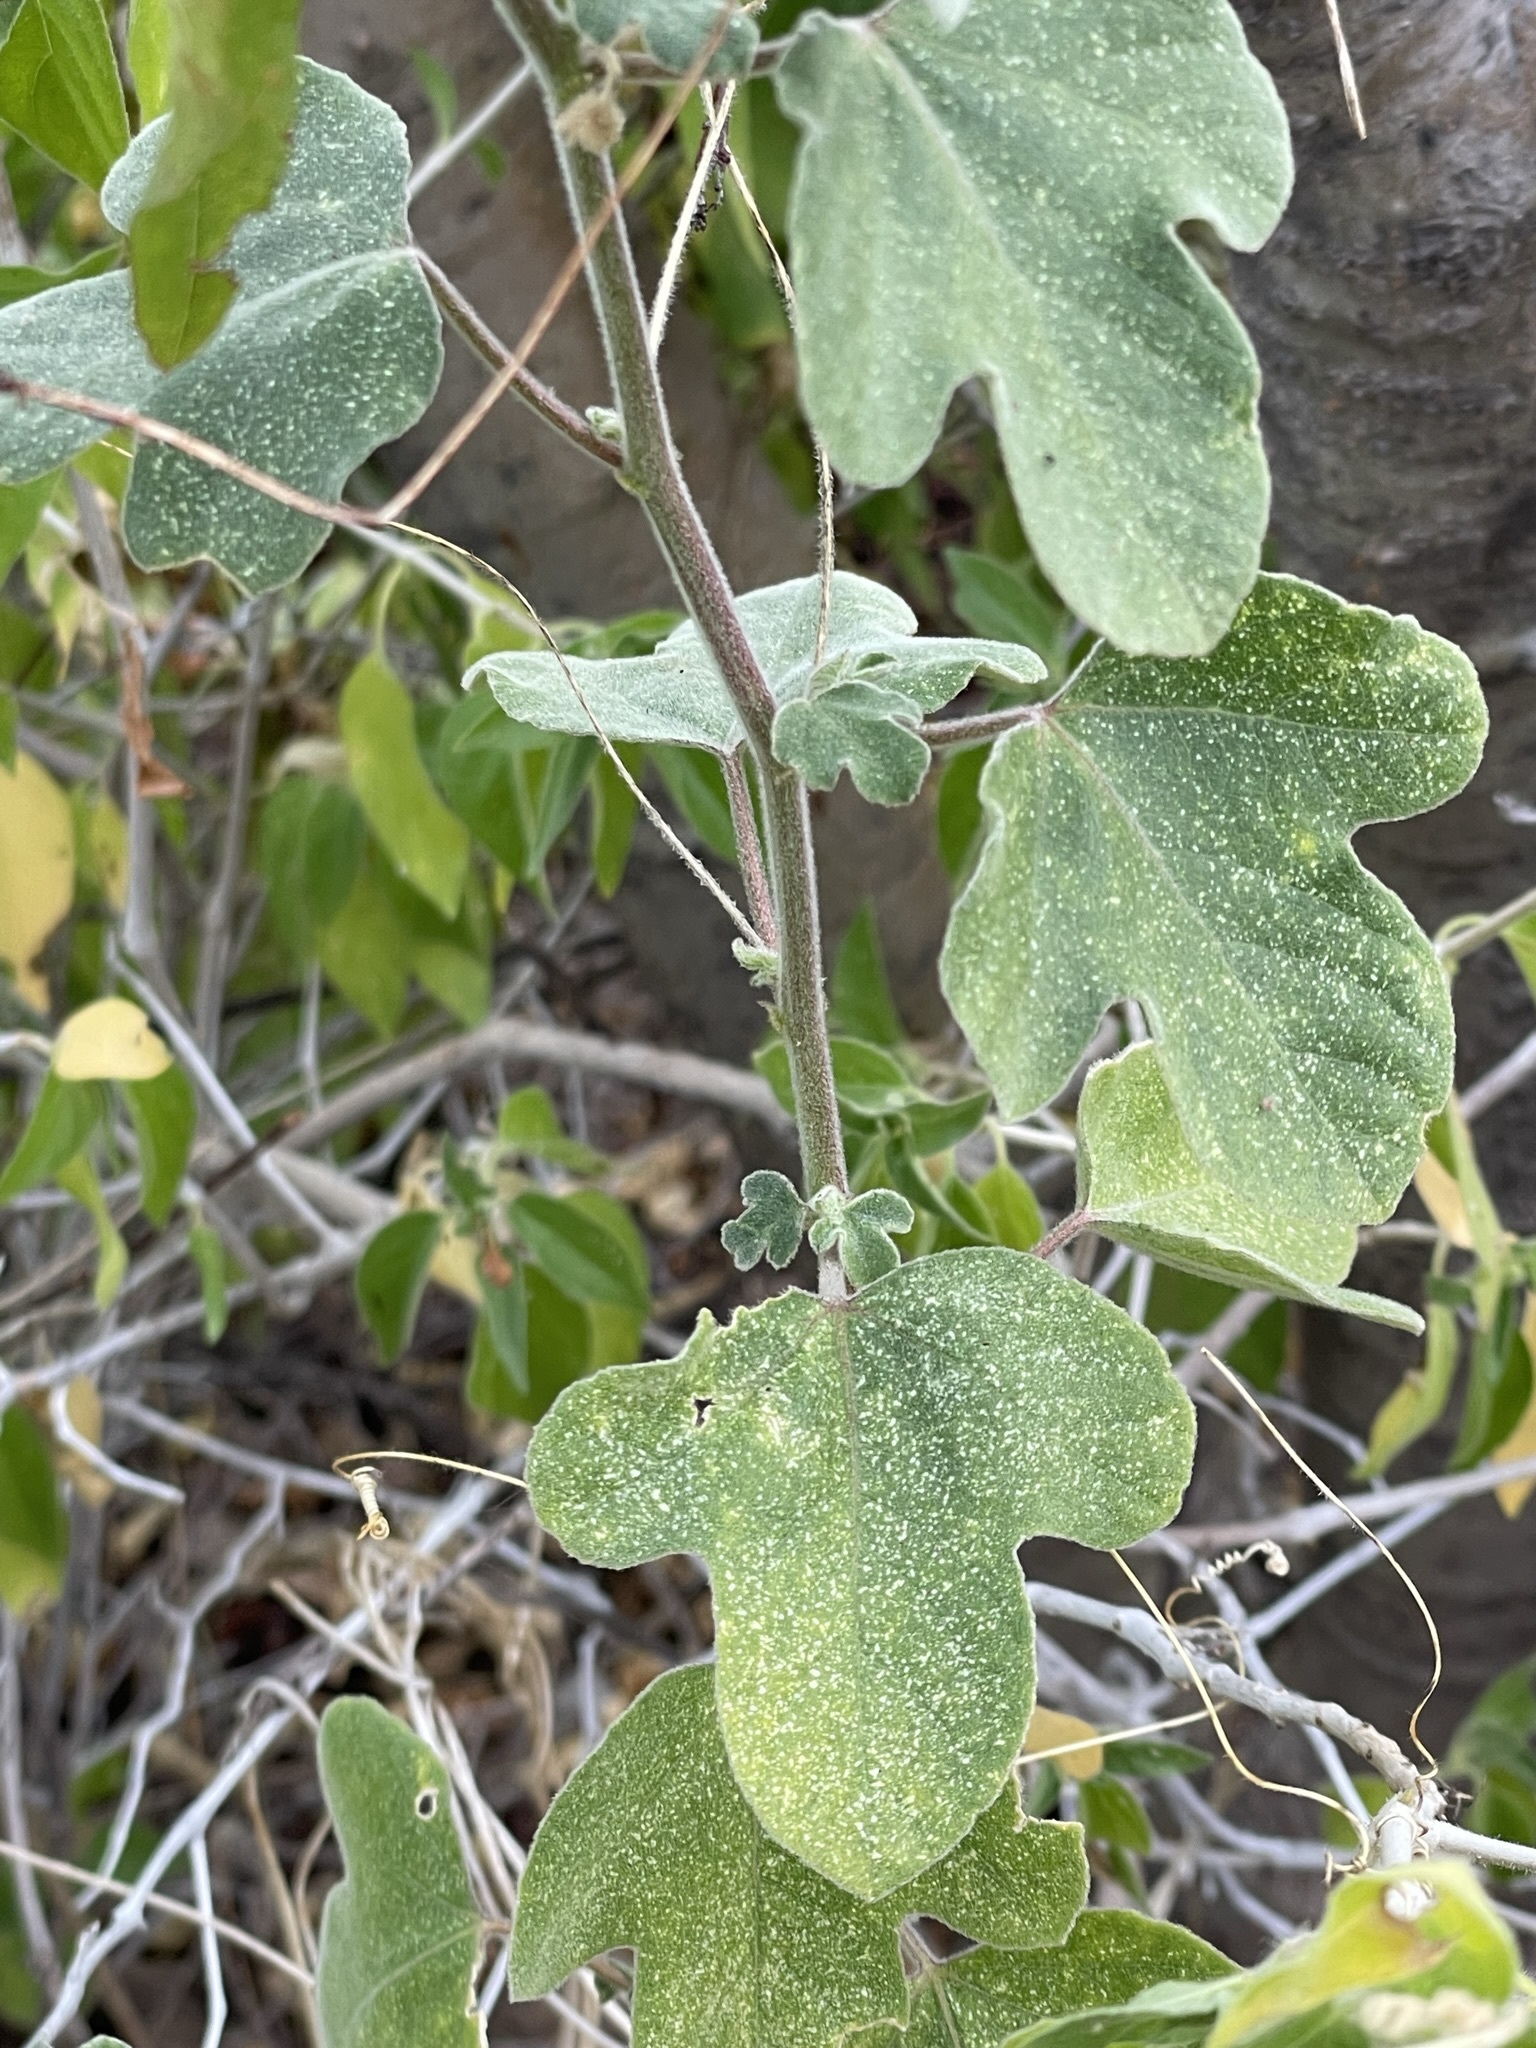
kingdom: Plantae
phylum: Tracheophyta
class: Magnoliopsida
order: Malpighiales
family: Passifloraceae
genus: Passiflora
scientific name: Passiflora arida
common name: Desert passionflower
